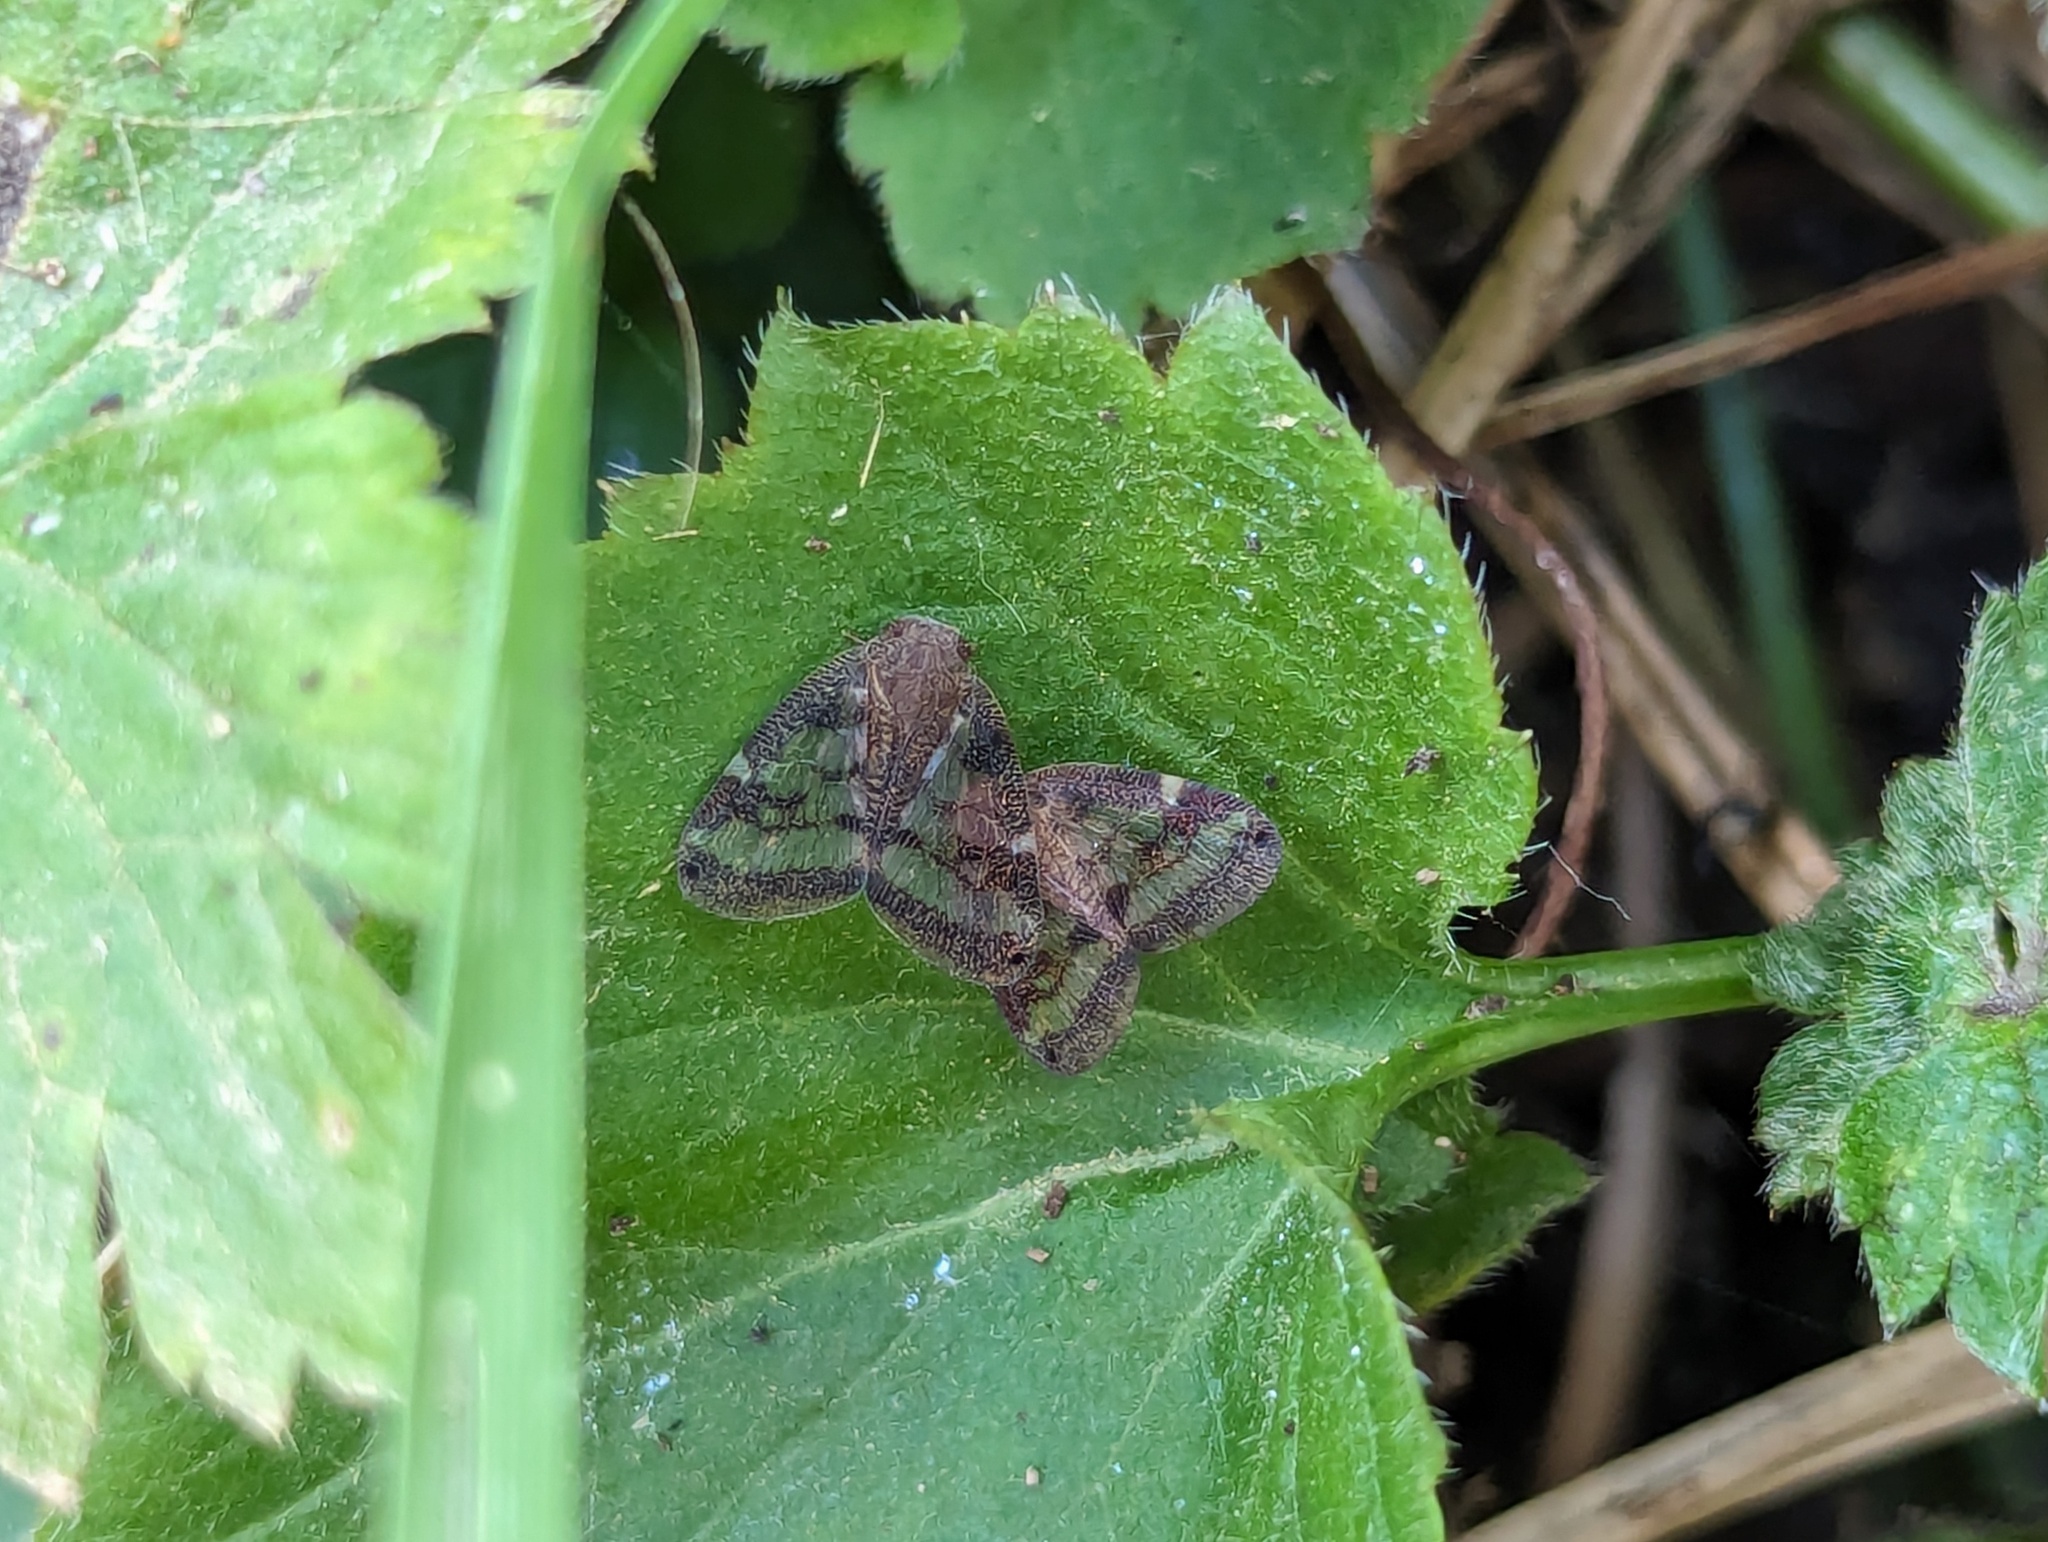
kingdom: Animalia
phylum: Arthropoda
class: Insecta
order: Hemiptera
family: Ricaniidae
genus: Scolypopa
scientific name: Scolypopa australis
